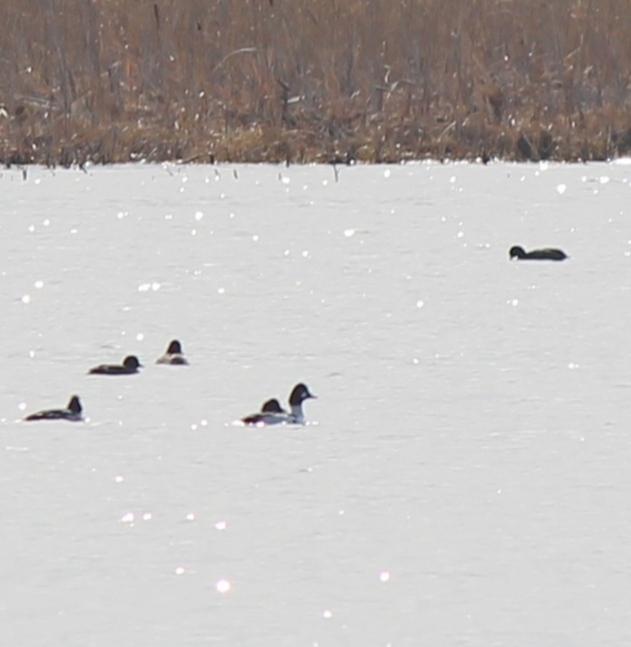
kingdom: Animalia
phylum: Chordata
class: Aves
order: Anseriformes
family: Anatidae
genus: Bucephala
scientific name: Bucephala clangula
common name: Common goldeneye
